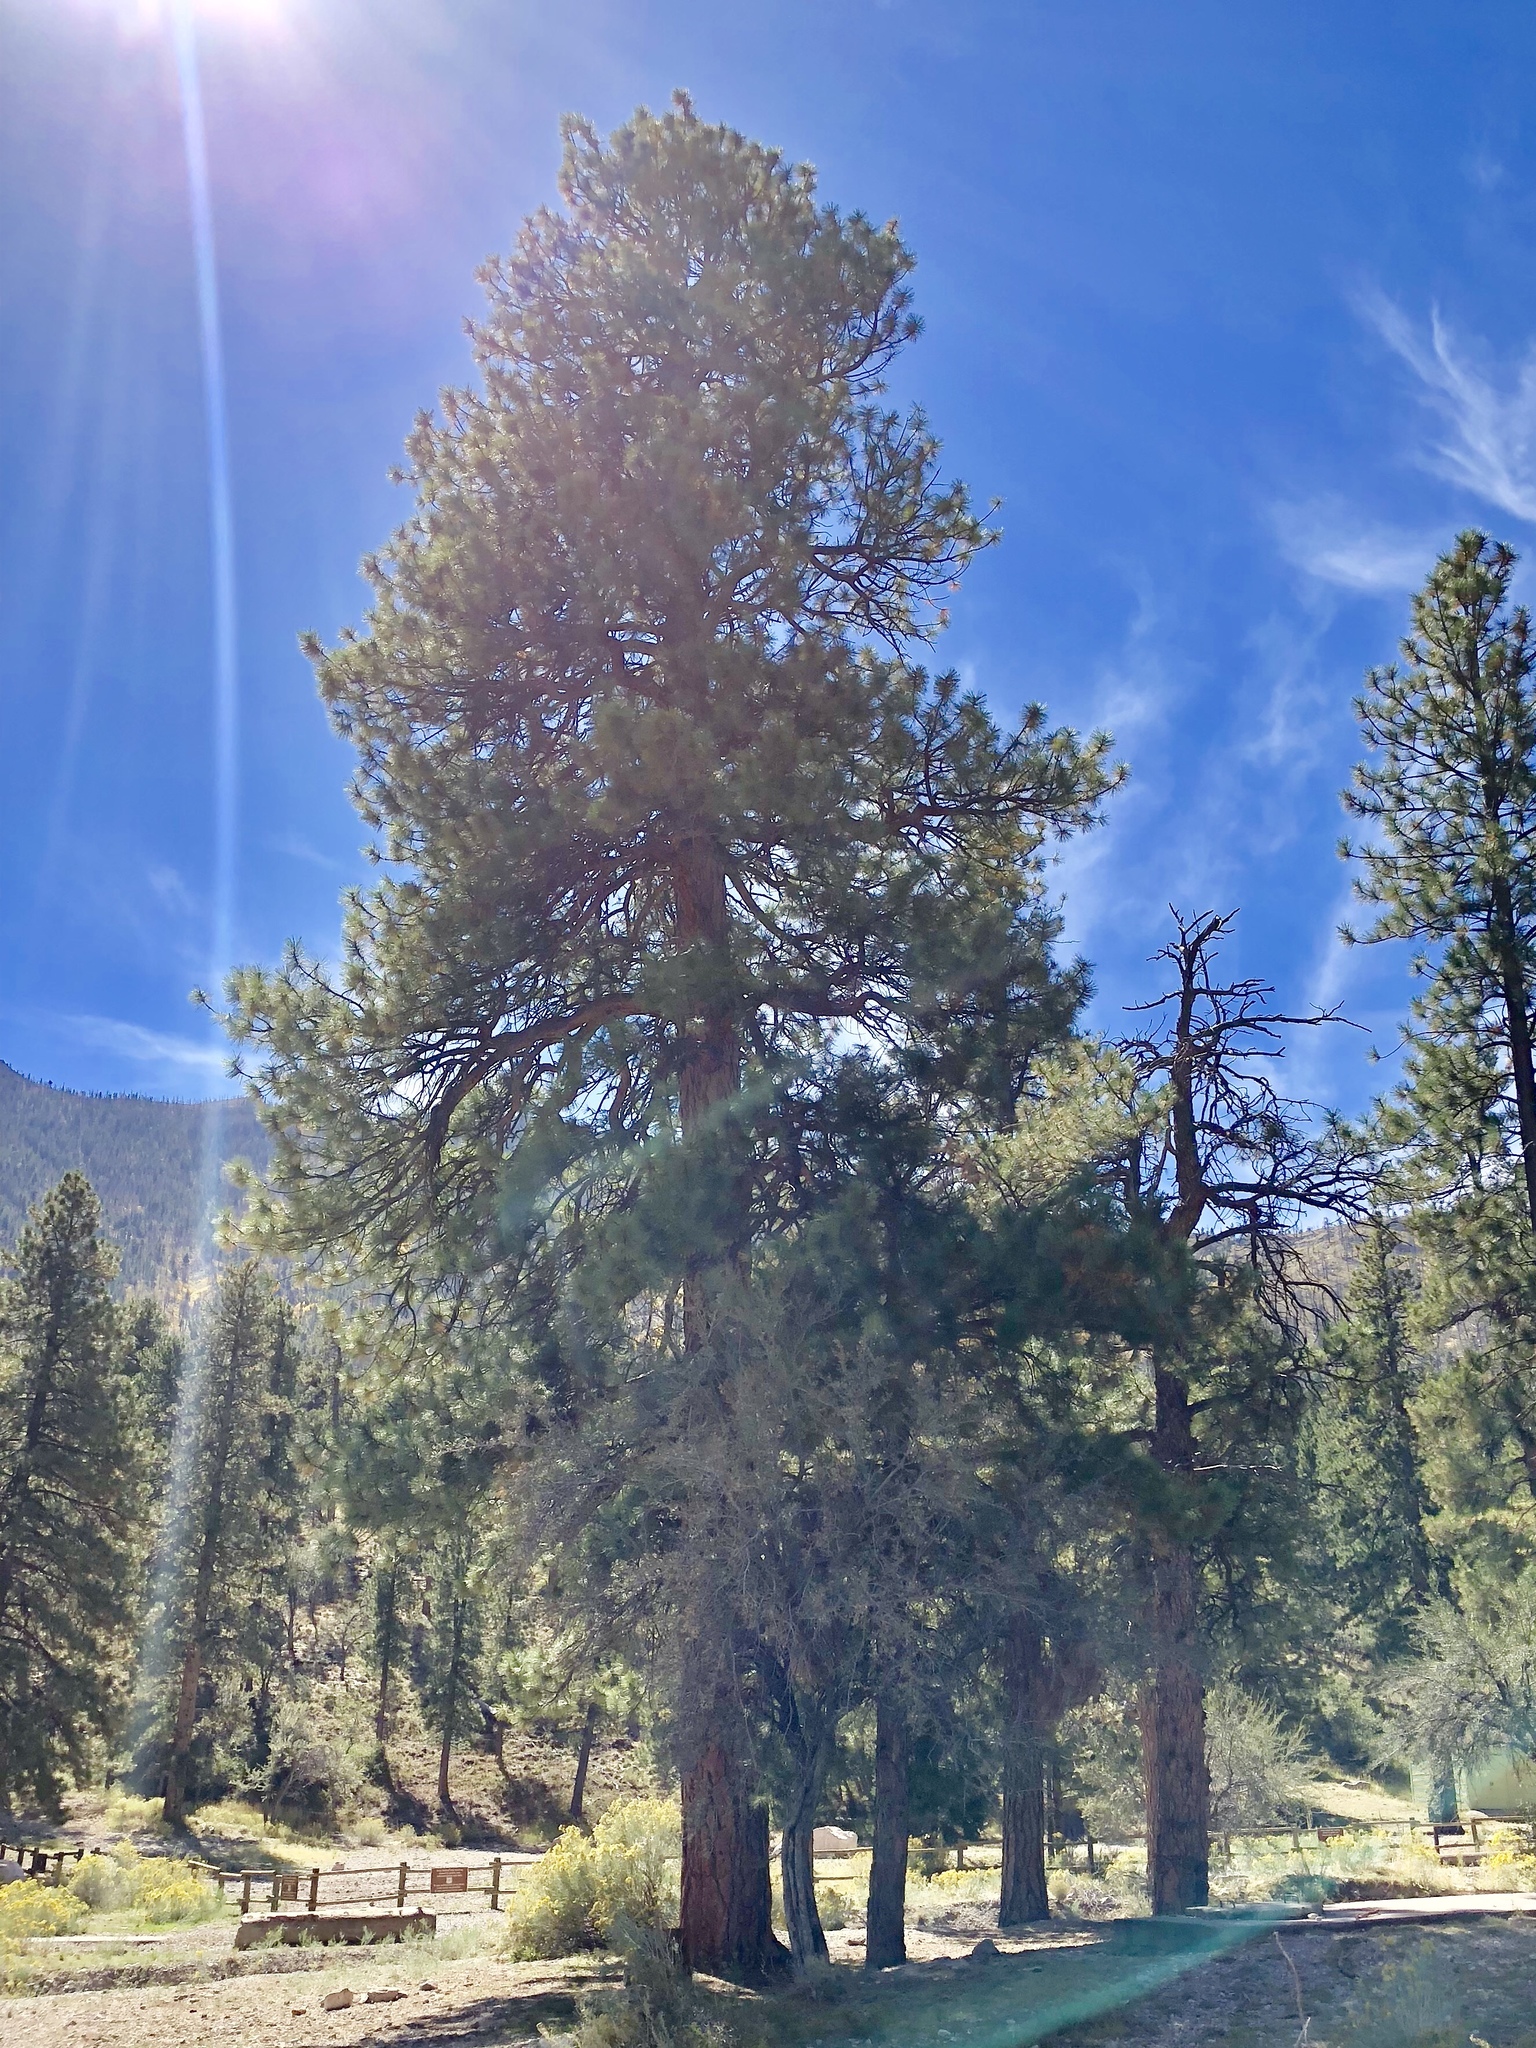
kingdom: Plantae
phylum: Tracheophyta
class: Pinopsida
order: Pinales
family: Pinaceae
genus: Pinus
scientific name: Pinus ponderosa
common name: Western yellow-pine
